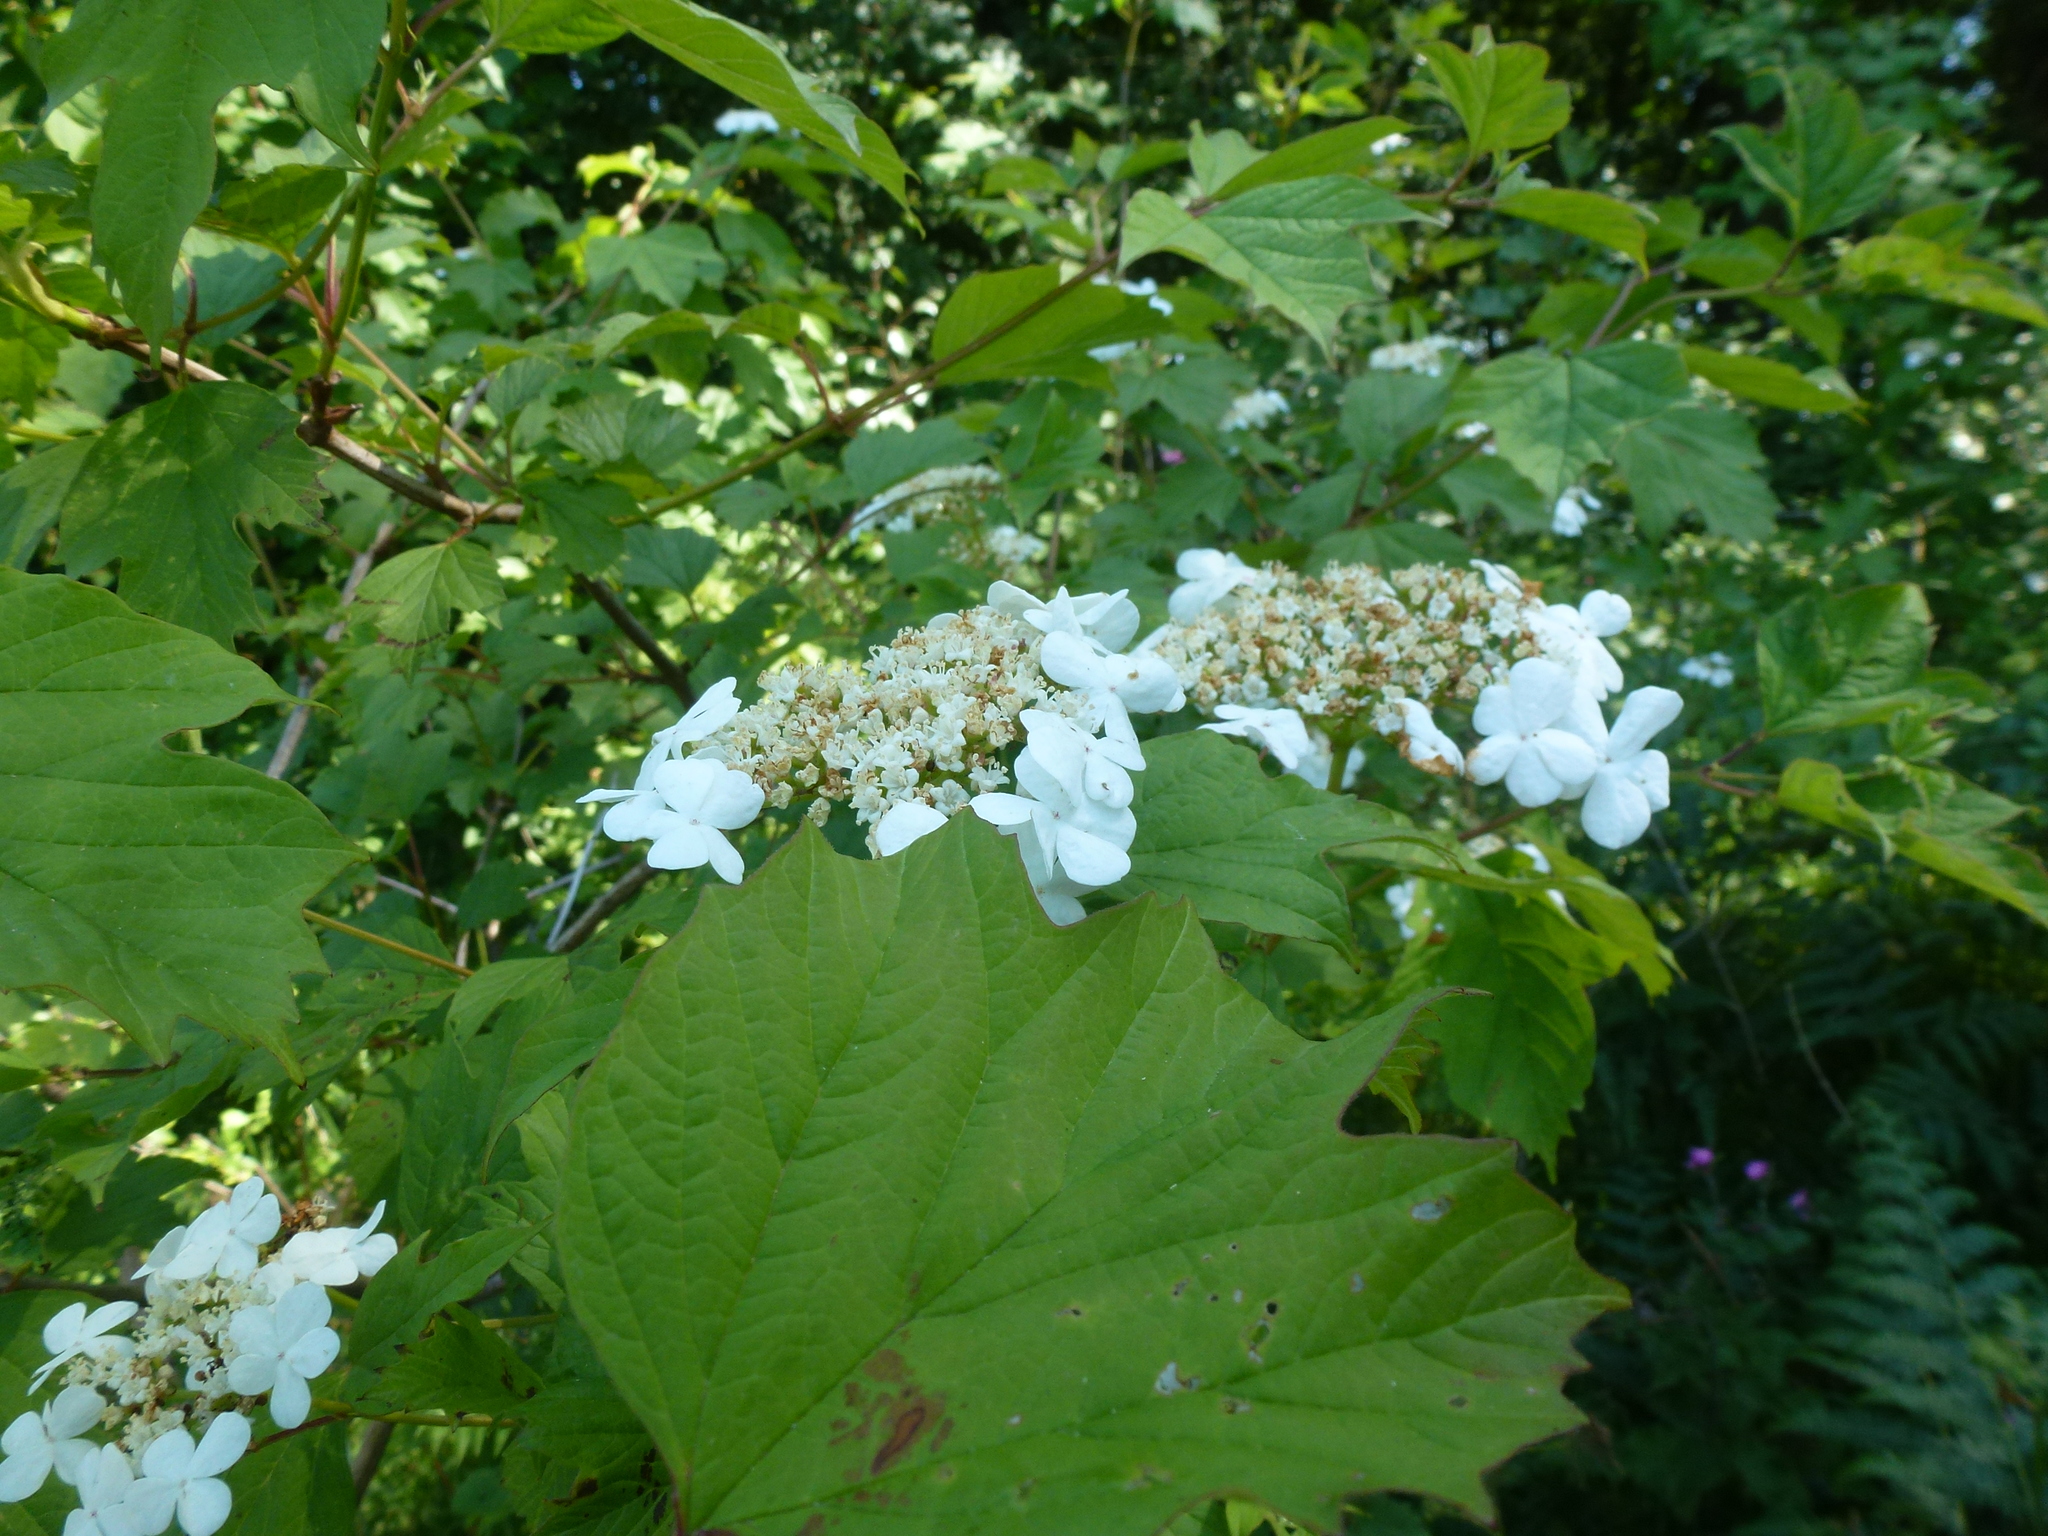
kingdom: Plantae
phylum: Tracheophyta
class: Magnoliopsida
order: Dipsacales
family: Viburnaceae
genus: Viburnum
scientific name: Viburnum opulus
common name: Guelder-rose
